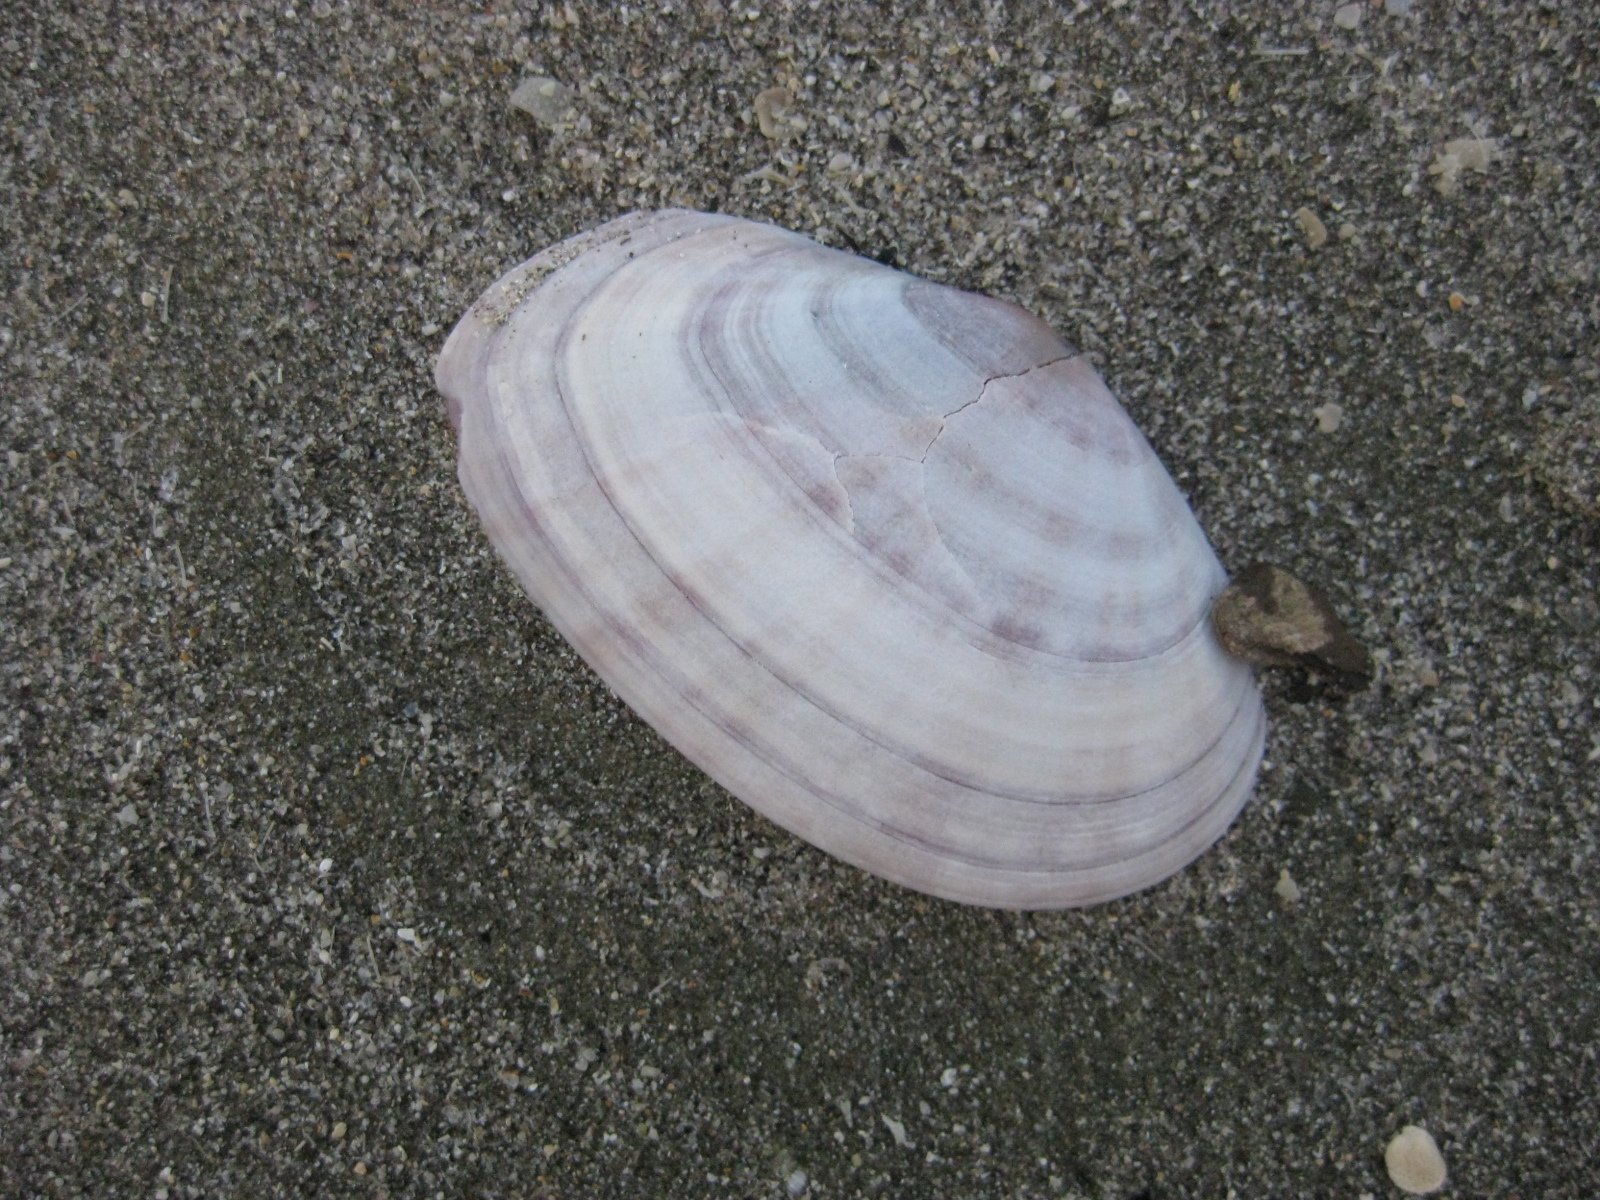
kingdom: Animalia
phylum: Mollusca
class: Bivalvia
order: Cardiida
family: Psammobiidae
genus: Gari
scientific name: Gari stangeri
